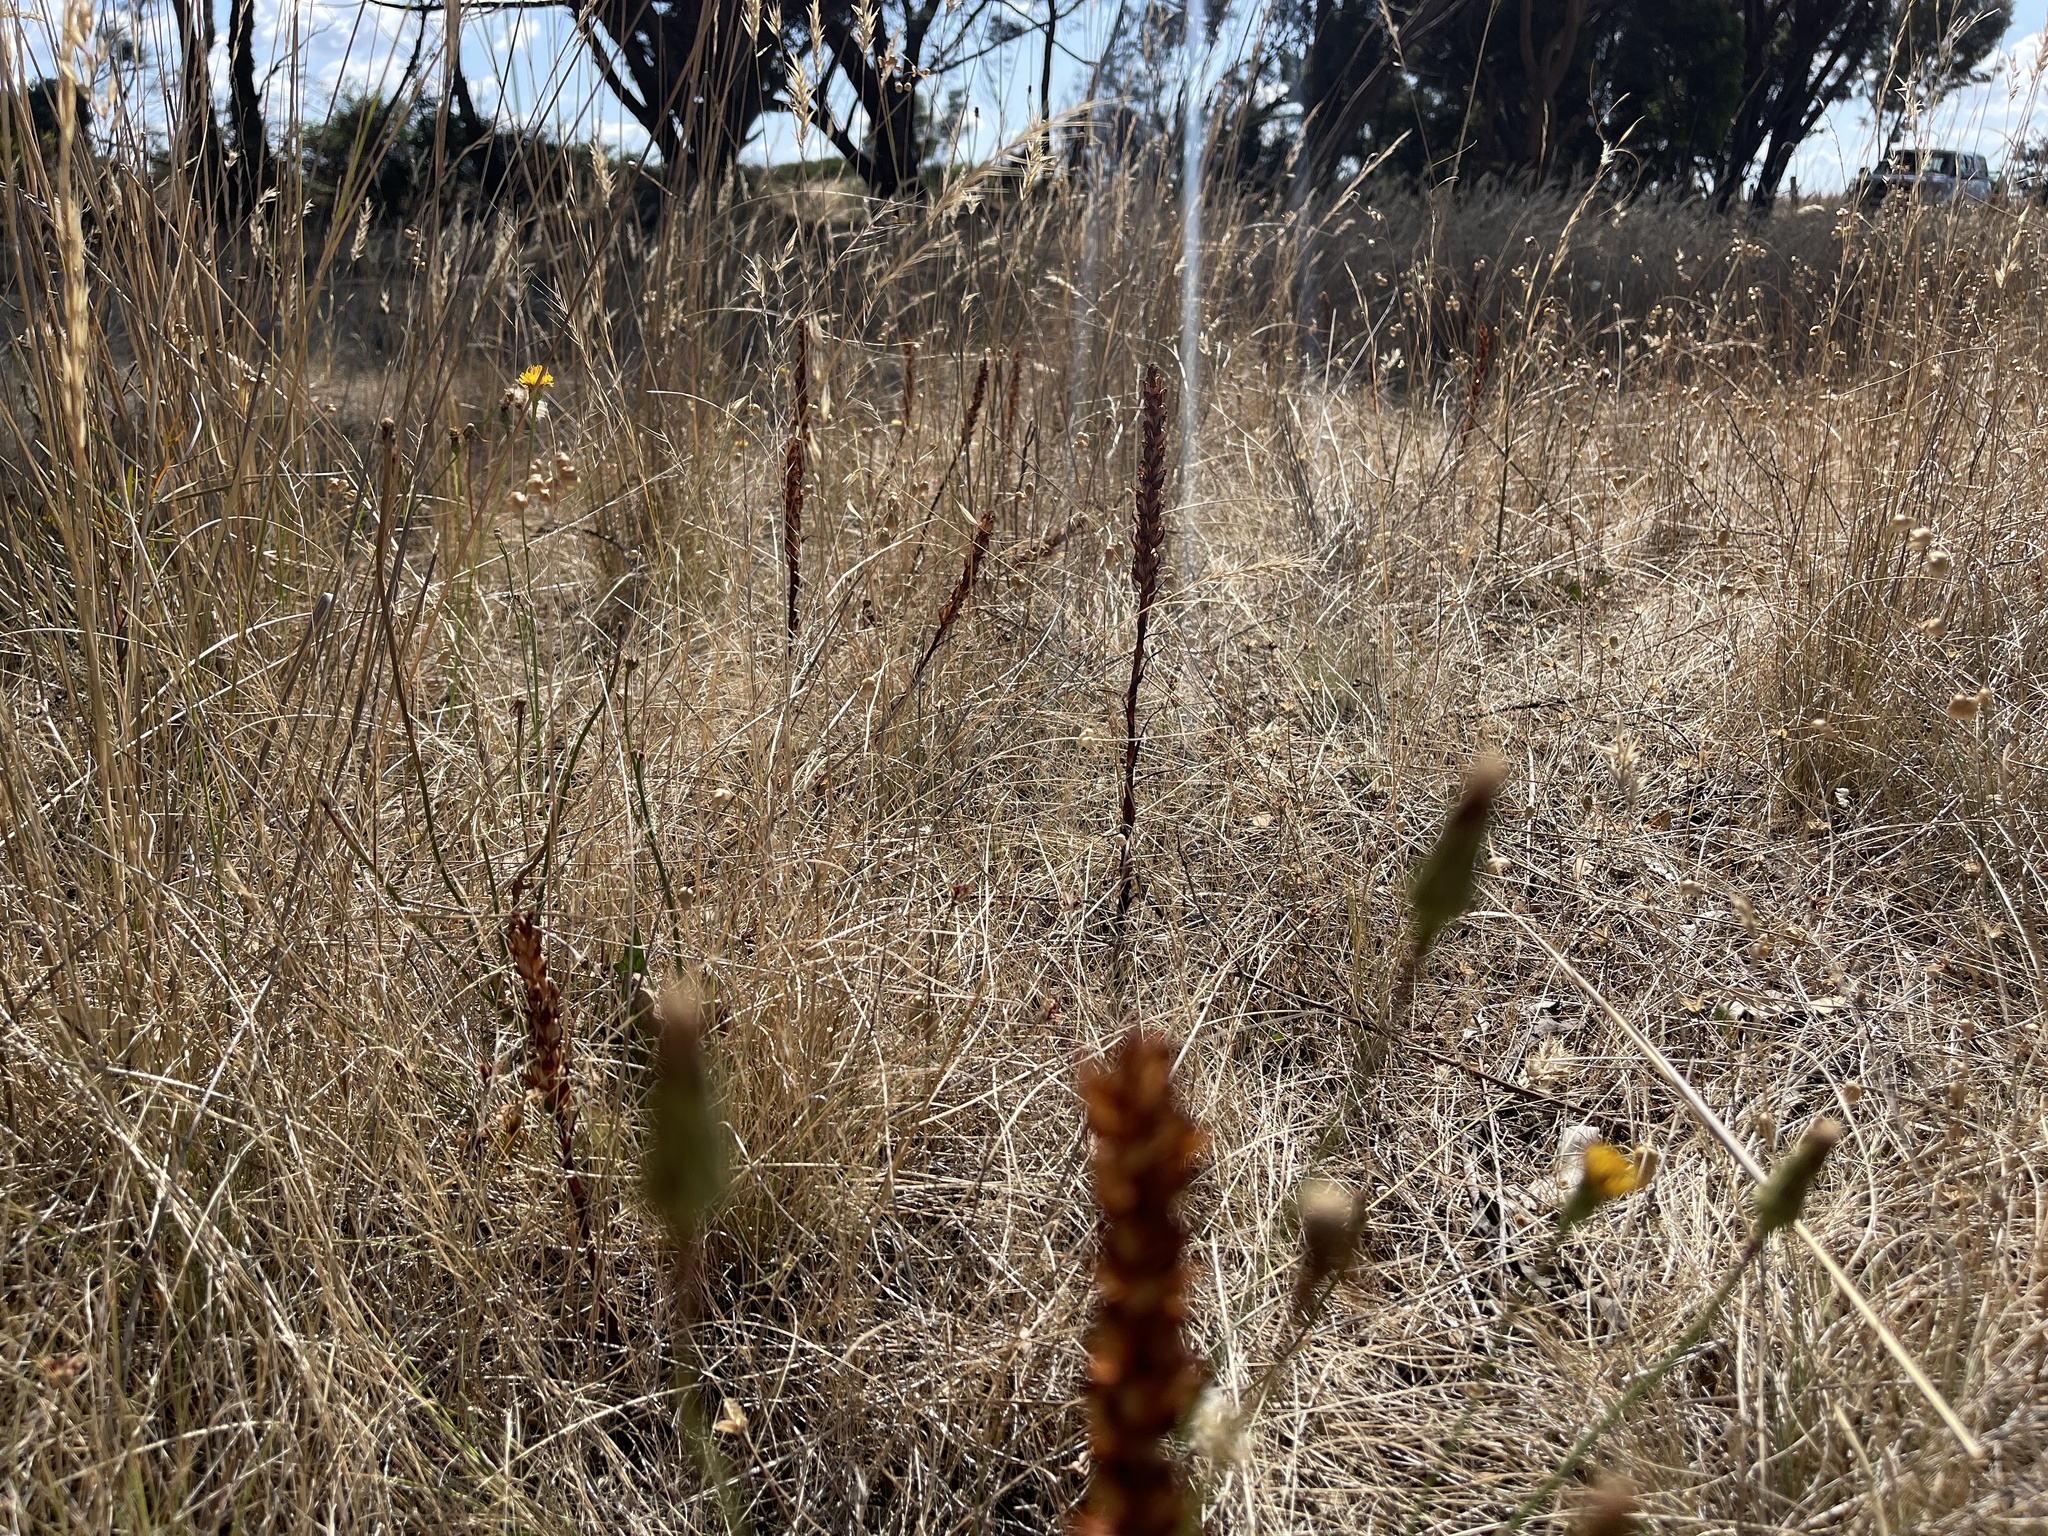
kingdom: Plantae
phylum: Tracheophyta
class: Liliopsida
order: Asparagales
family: Orchidaceae
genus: Disa
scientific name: Disa bracteata
